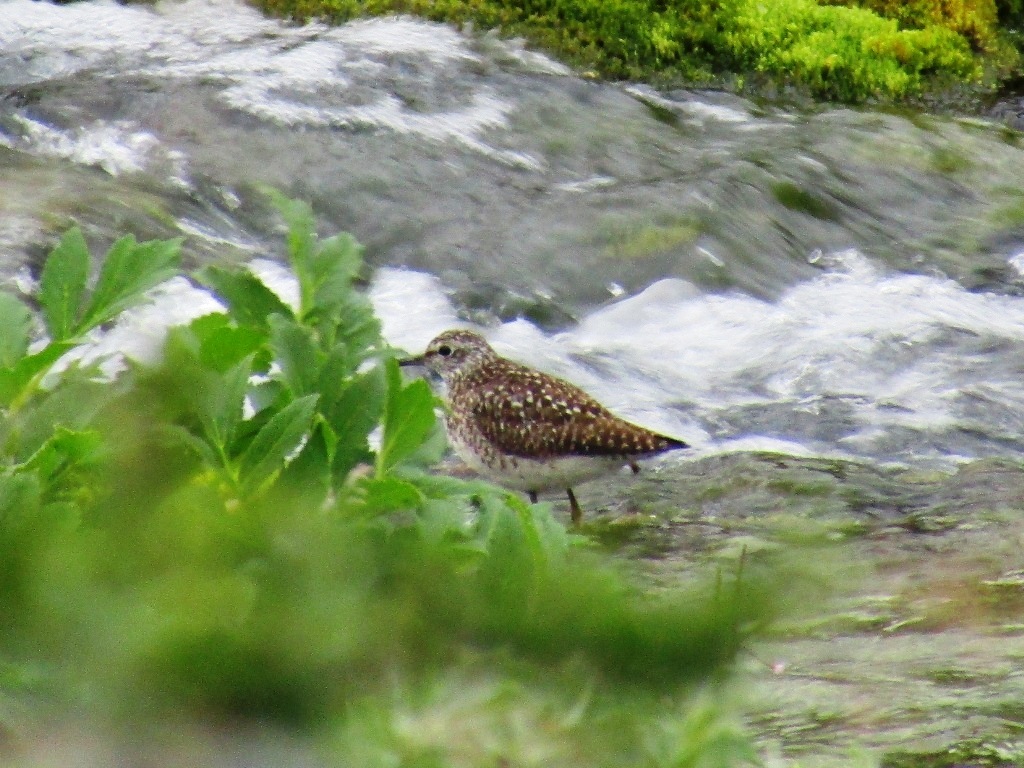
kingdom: Animalia
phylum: Chordata
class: Aves
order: Charadriiformes
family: Scolopacidae
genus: Tringa
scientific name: Tringa glareola
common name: Wood sandpiper
